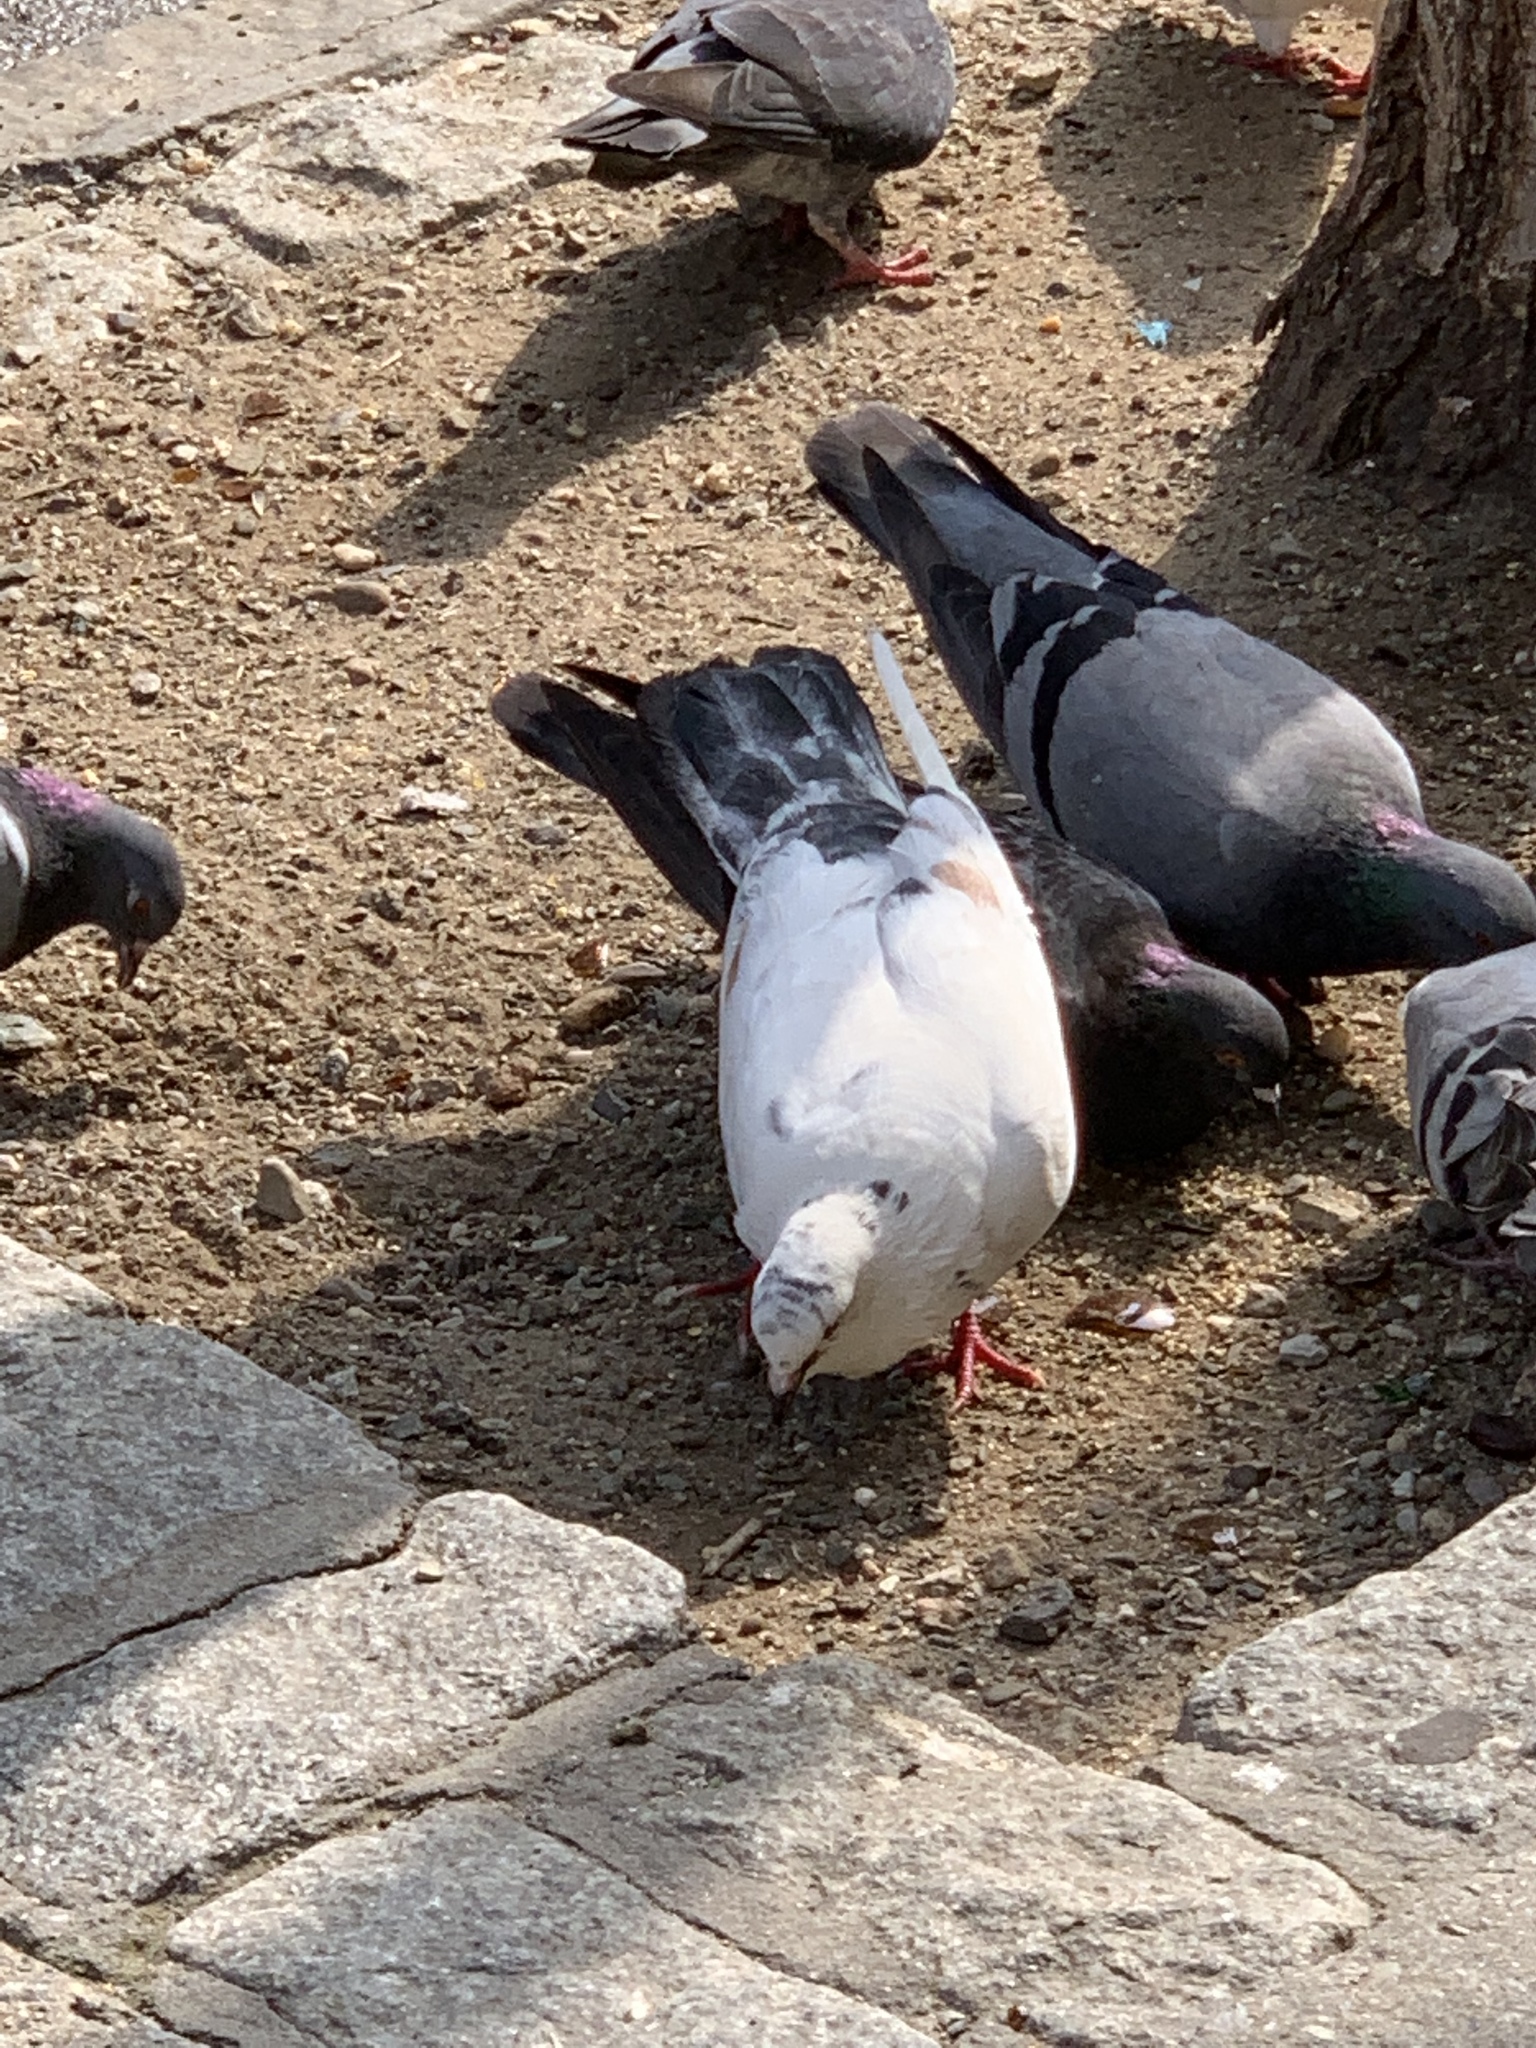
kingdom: Animalia
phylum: Chordata
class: Aves
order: Columbiformes
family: Columbidae
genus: Columba
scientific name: Columba livia
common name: Rock pigeon
